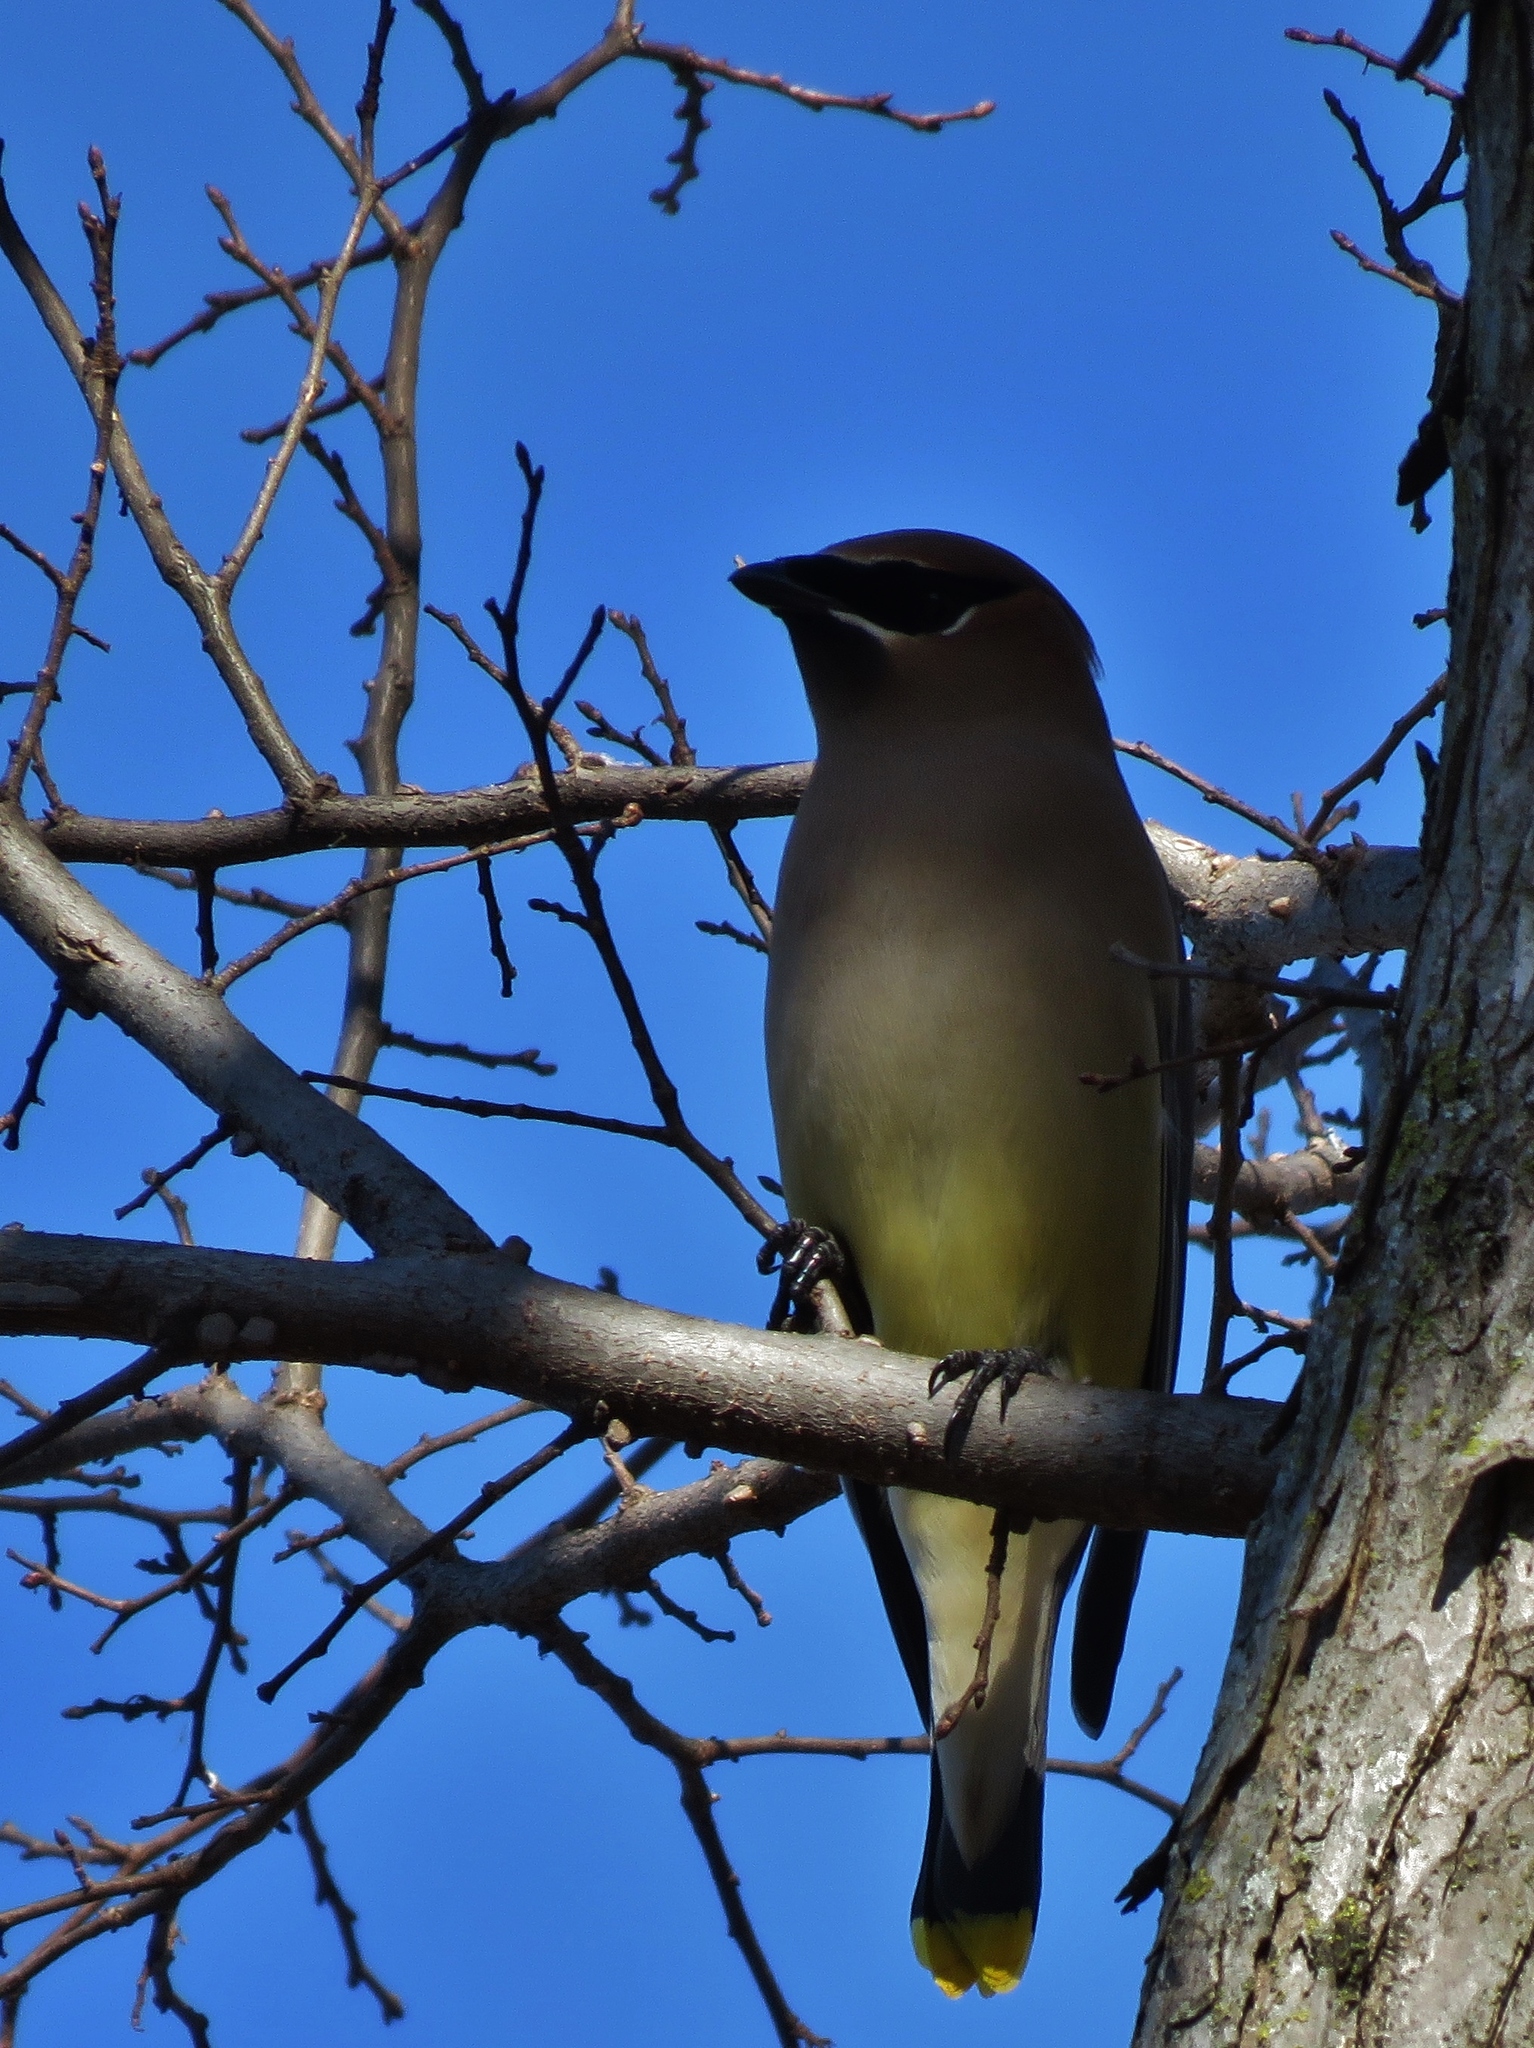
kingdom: Animalia
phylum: Chordata
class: Aves
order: Passeriformes
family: Bombycillidae
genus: Bombycilla
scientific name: Bombycilla cedrorum
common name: Cedar waxwing
